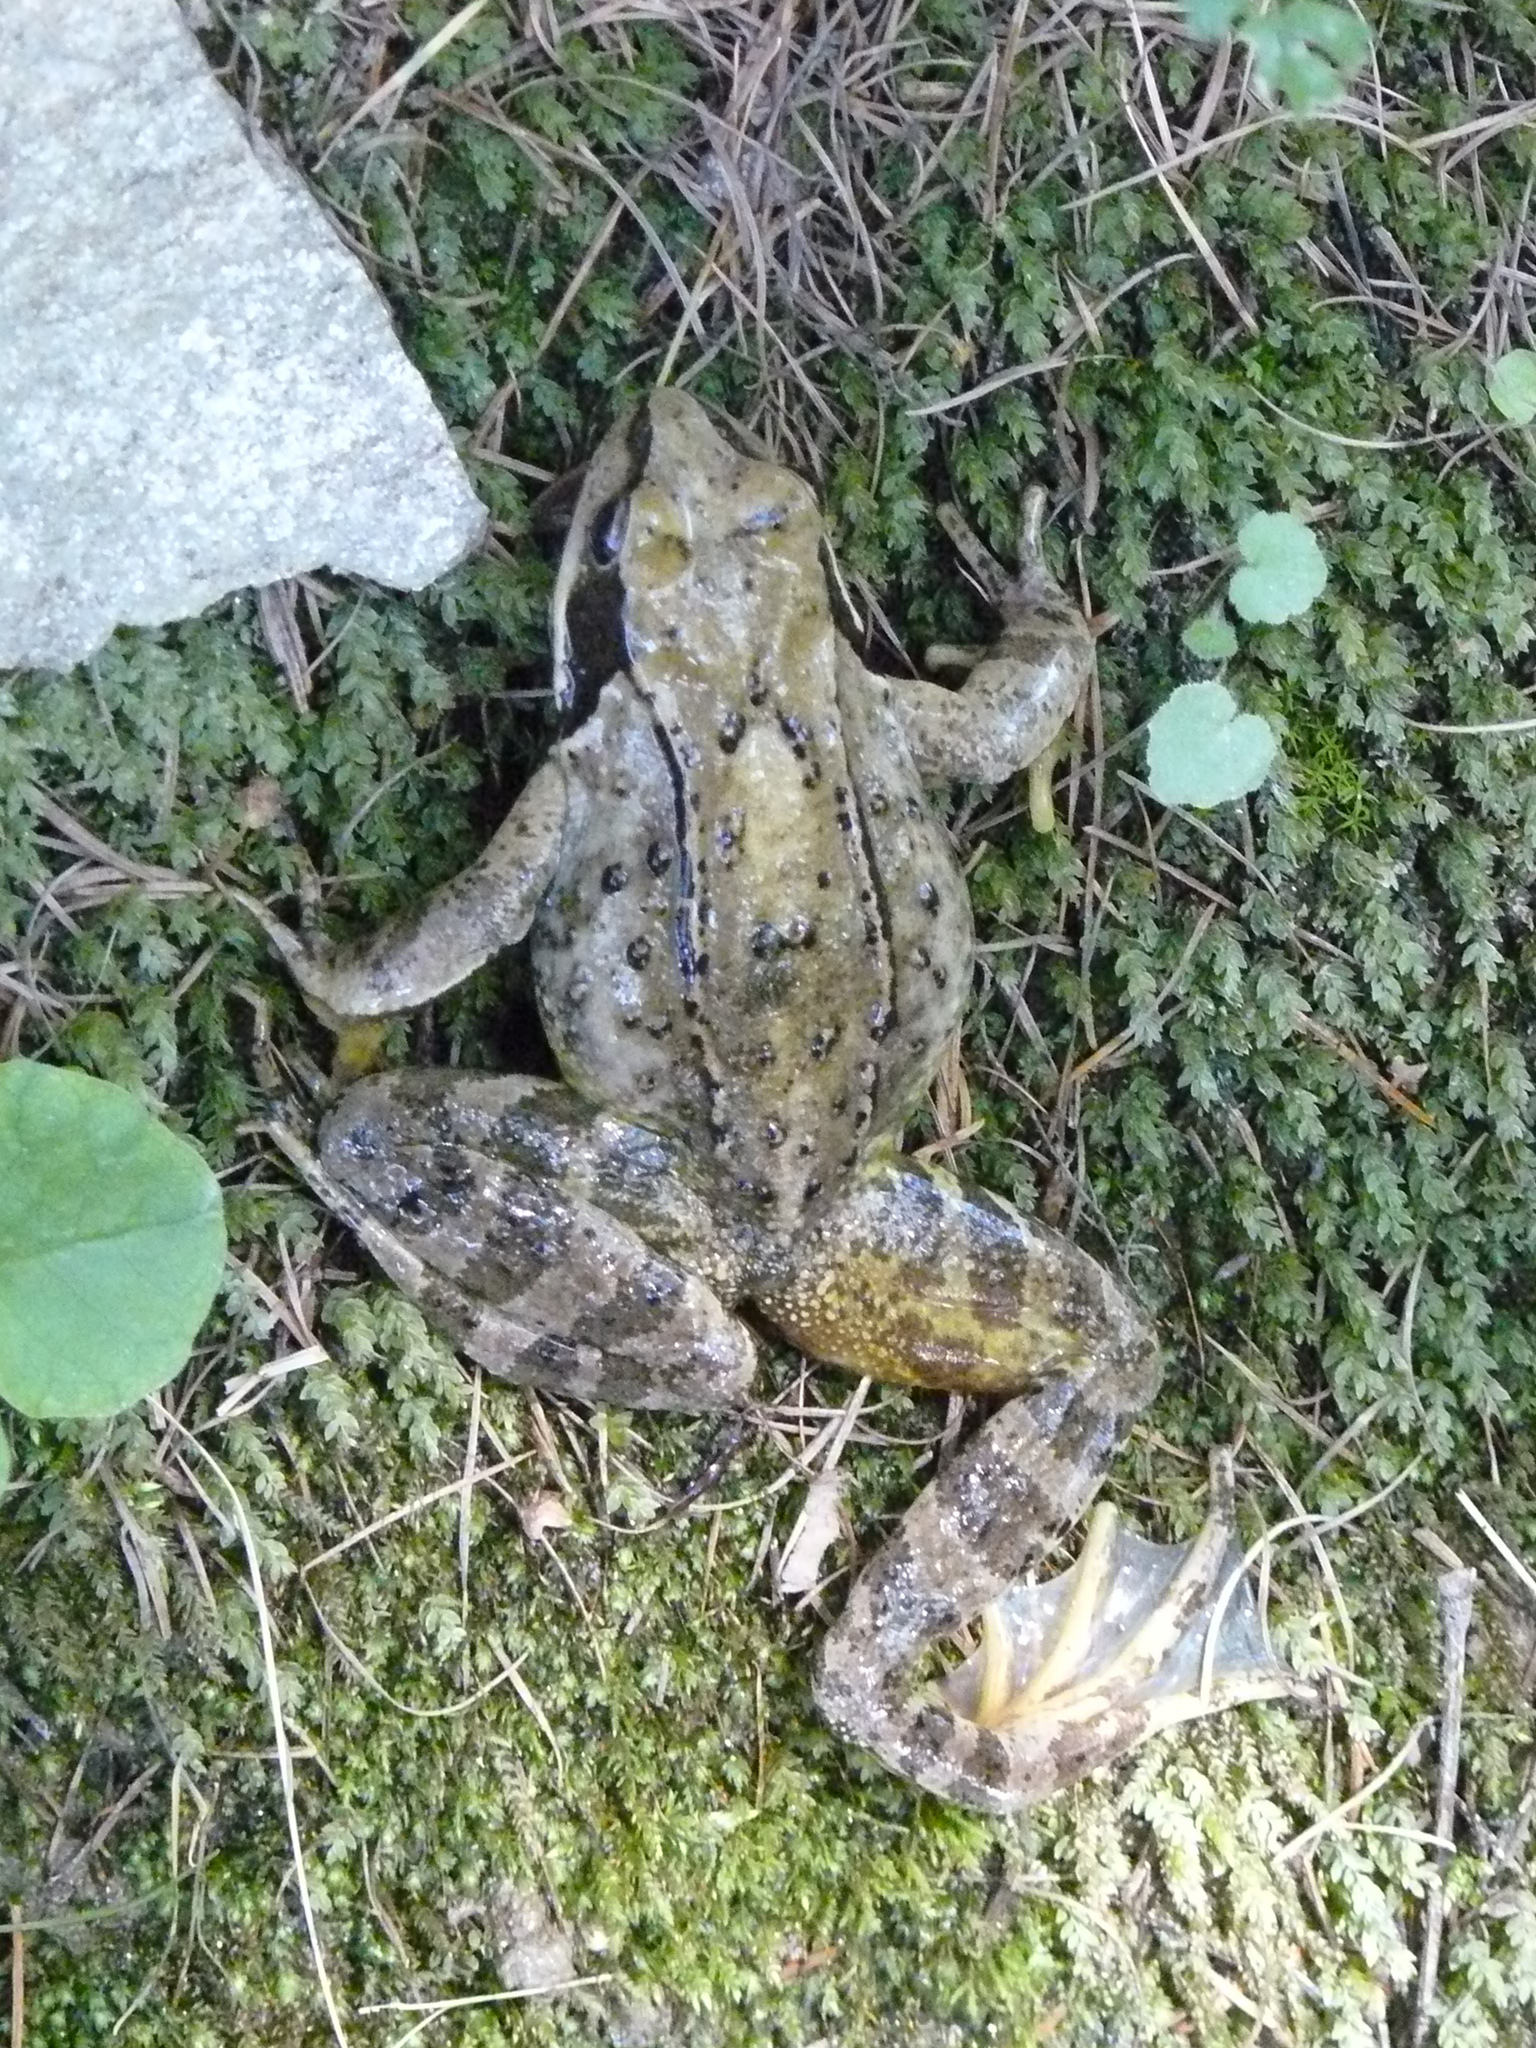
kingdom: Animalia
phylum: Chordata
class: Amphibia
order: Anura
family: Ranidae
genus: Rana
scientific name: Rana temporaria
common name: Common frog
